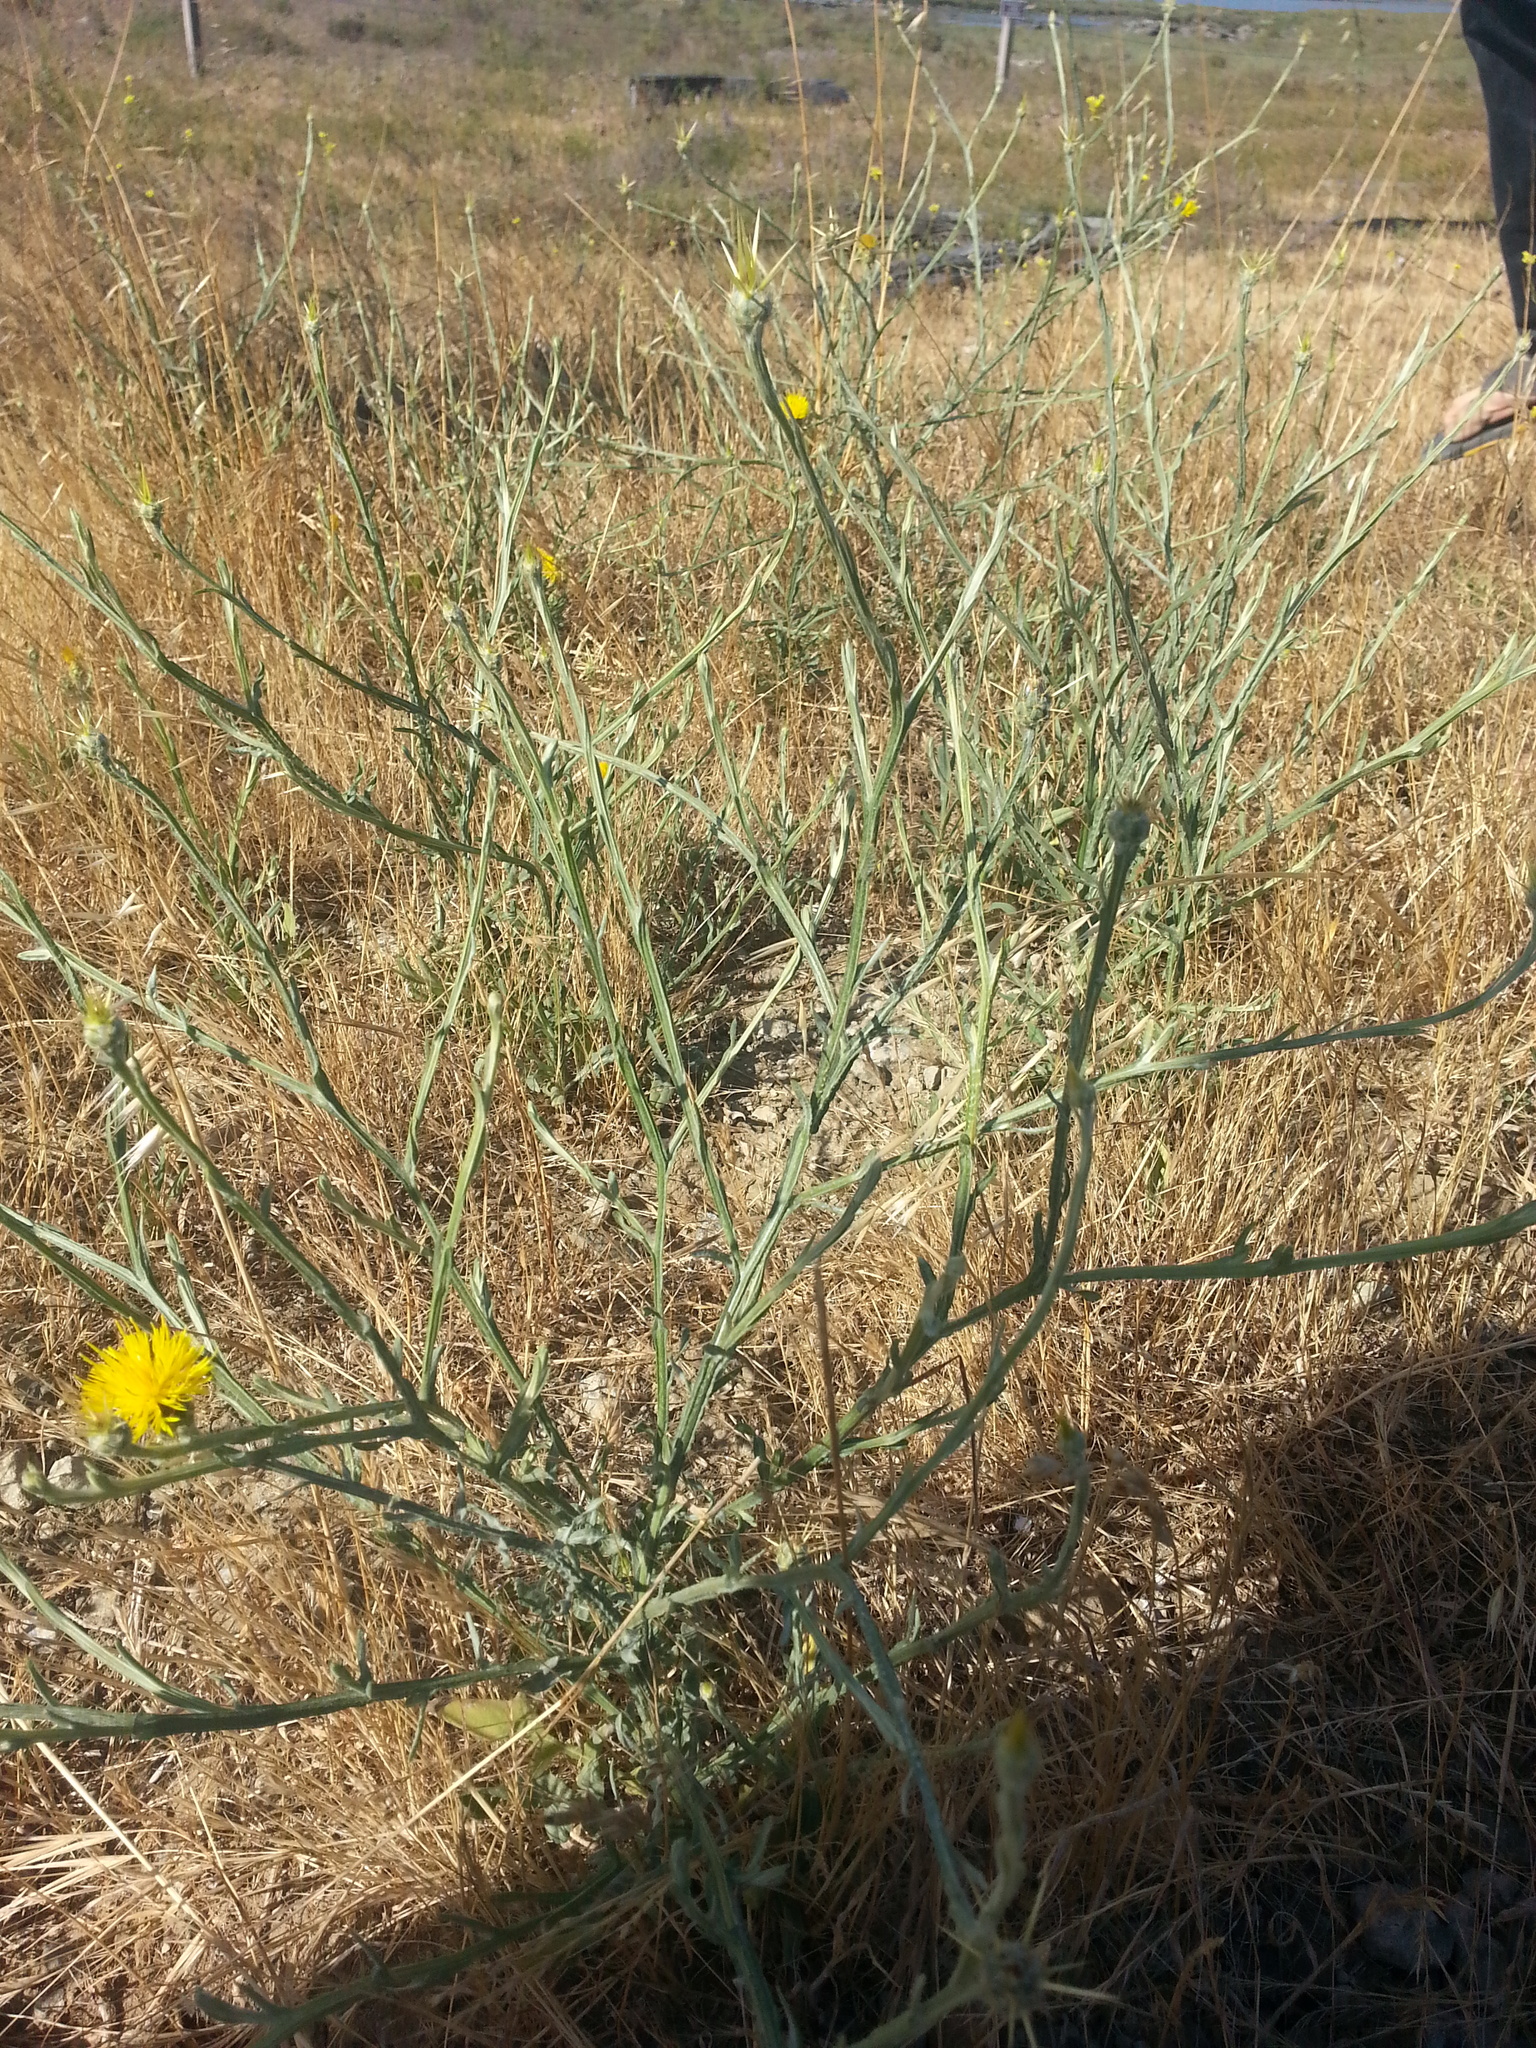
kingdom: Plantae
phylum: Tracheophyta
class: Magnoliopsida
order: Asterales
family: Asteraceae
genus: Centaurea
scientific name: Centaurea solstitialis
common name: Yellow star-thistle
